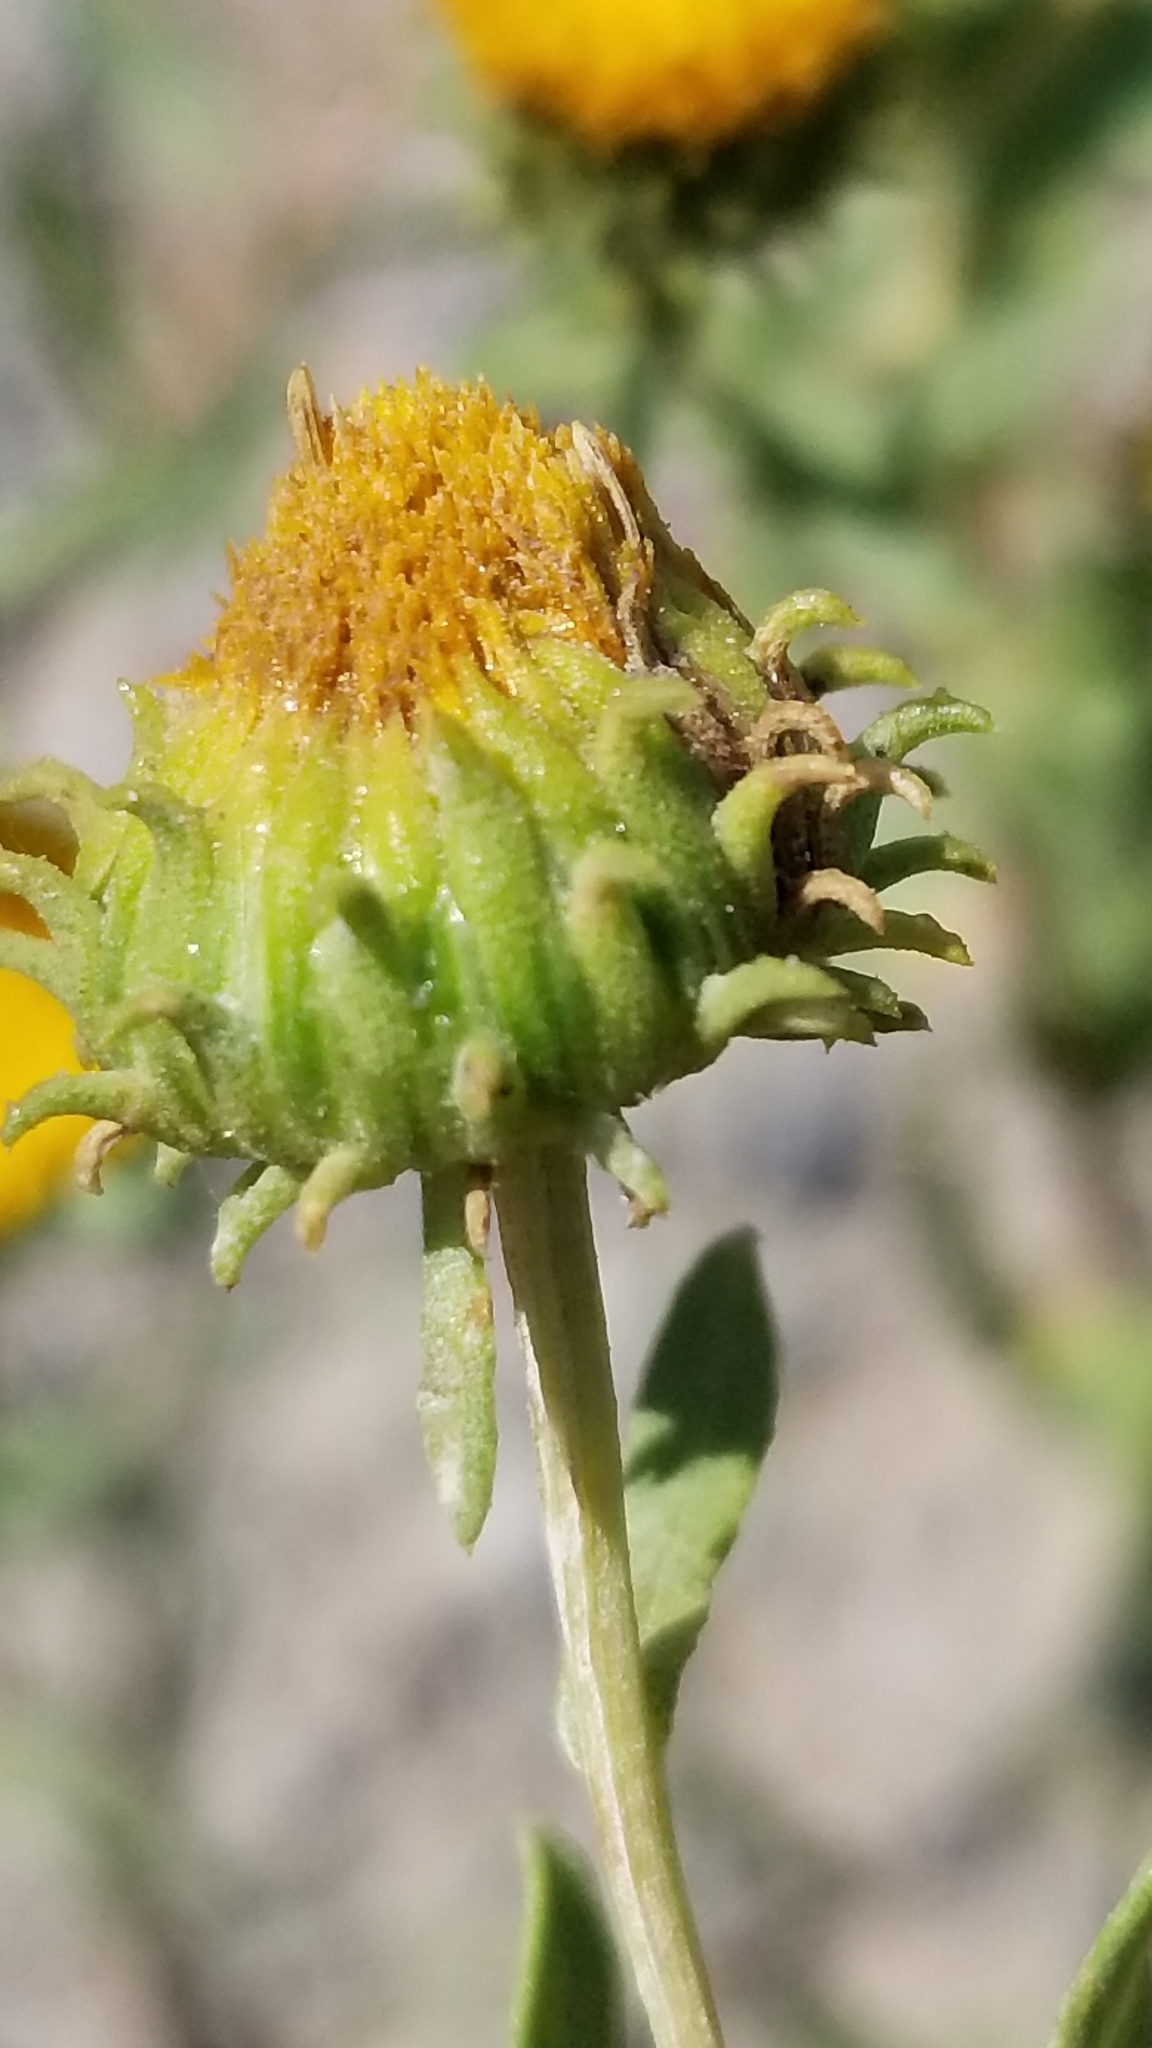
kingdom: Plantae
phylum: Tracheophyta
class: Magnoliopsida
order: Asterales
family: Asteraceae
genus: Grindelia
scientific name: Grindelia nuda
